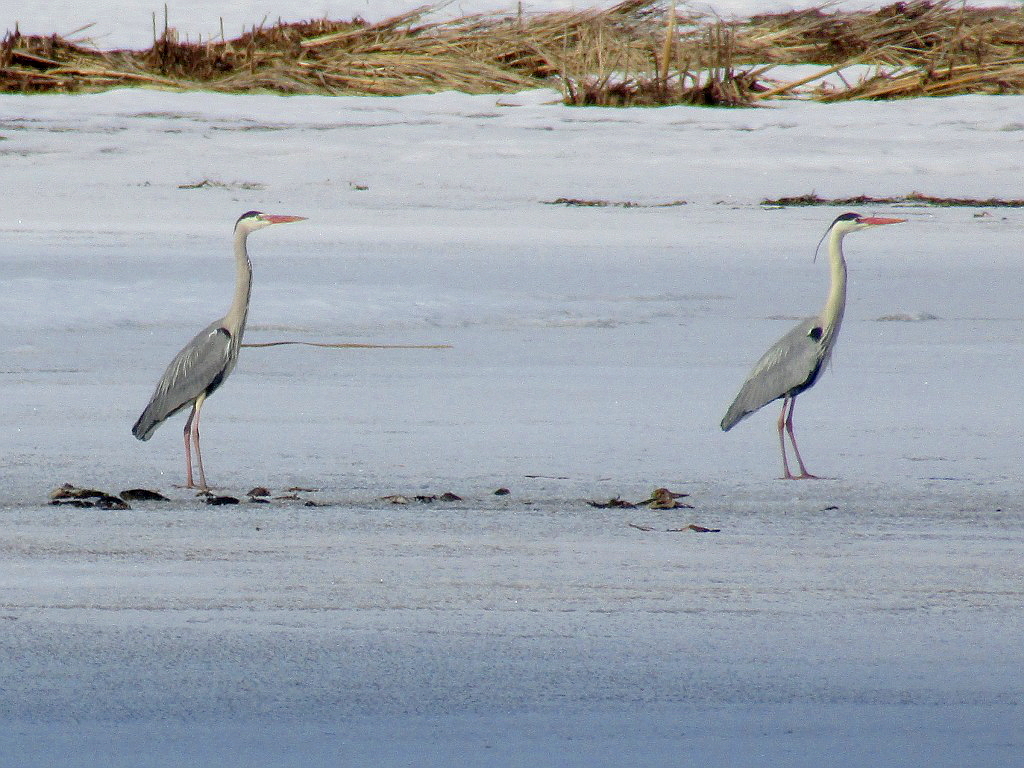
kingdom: Animalia
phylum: Chordata
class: Aves
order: Pelecaniformes
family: Ardeidae
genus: Ardea
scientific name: Ardea cinerea
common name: Grey heron
